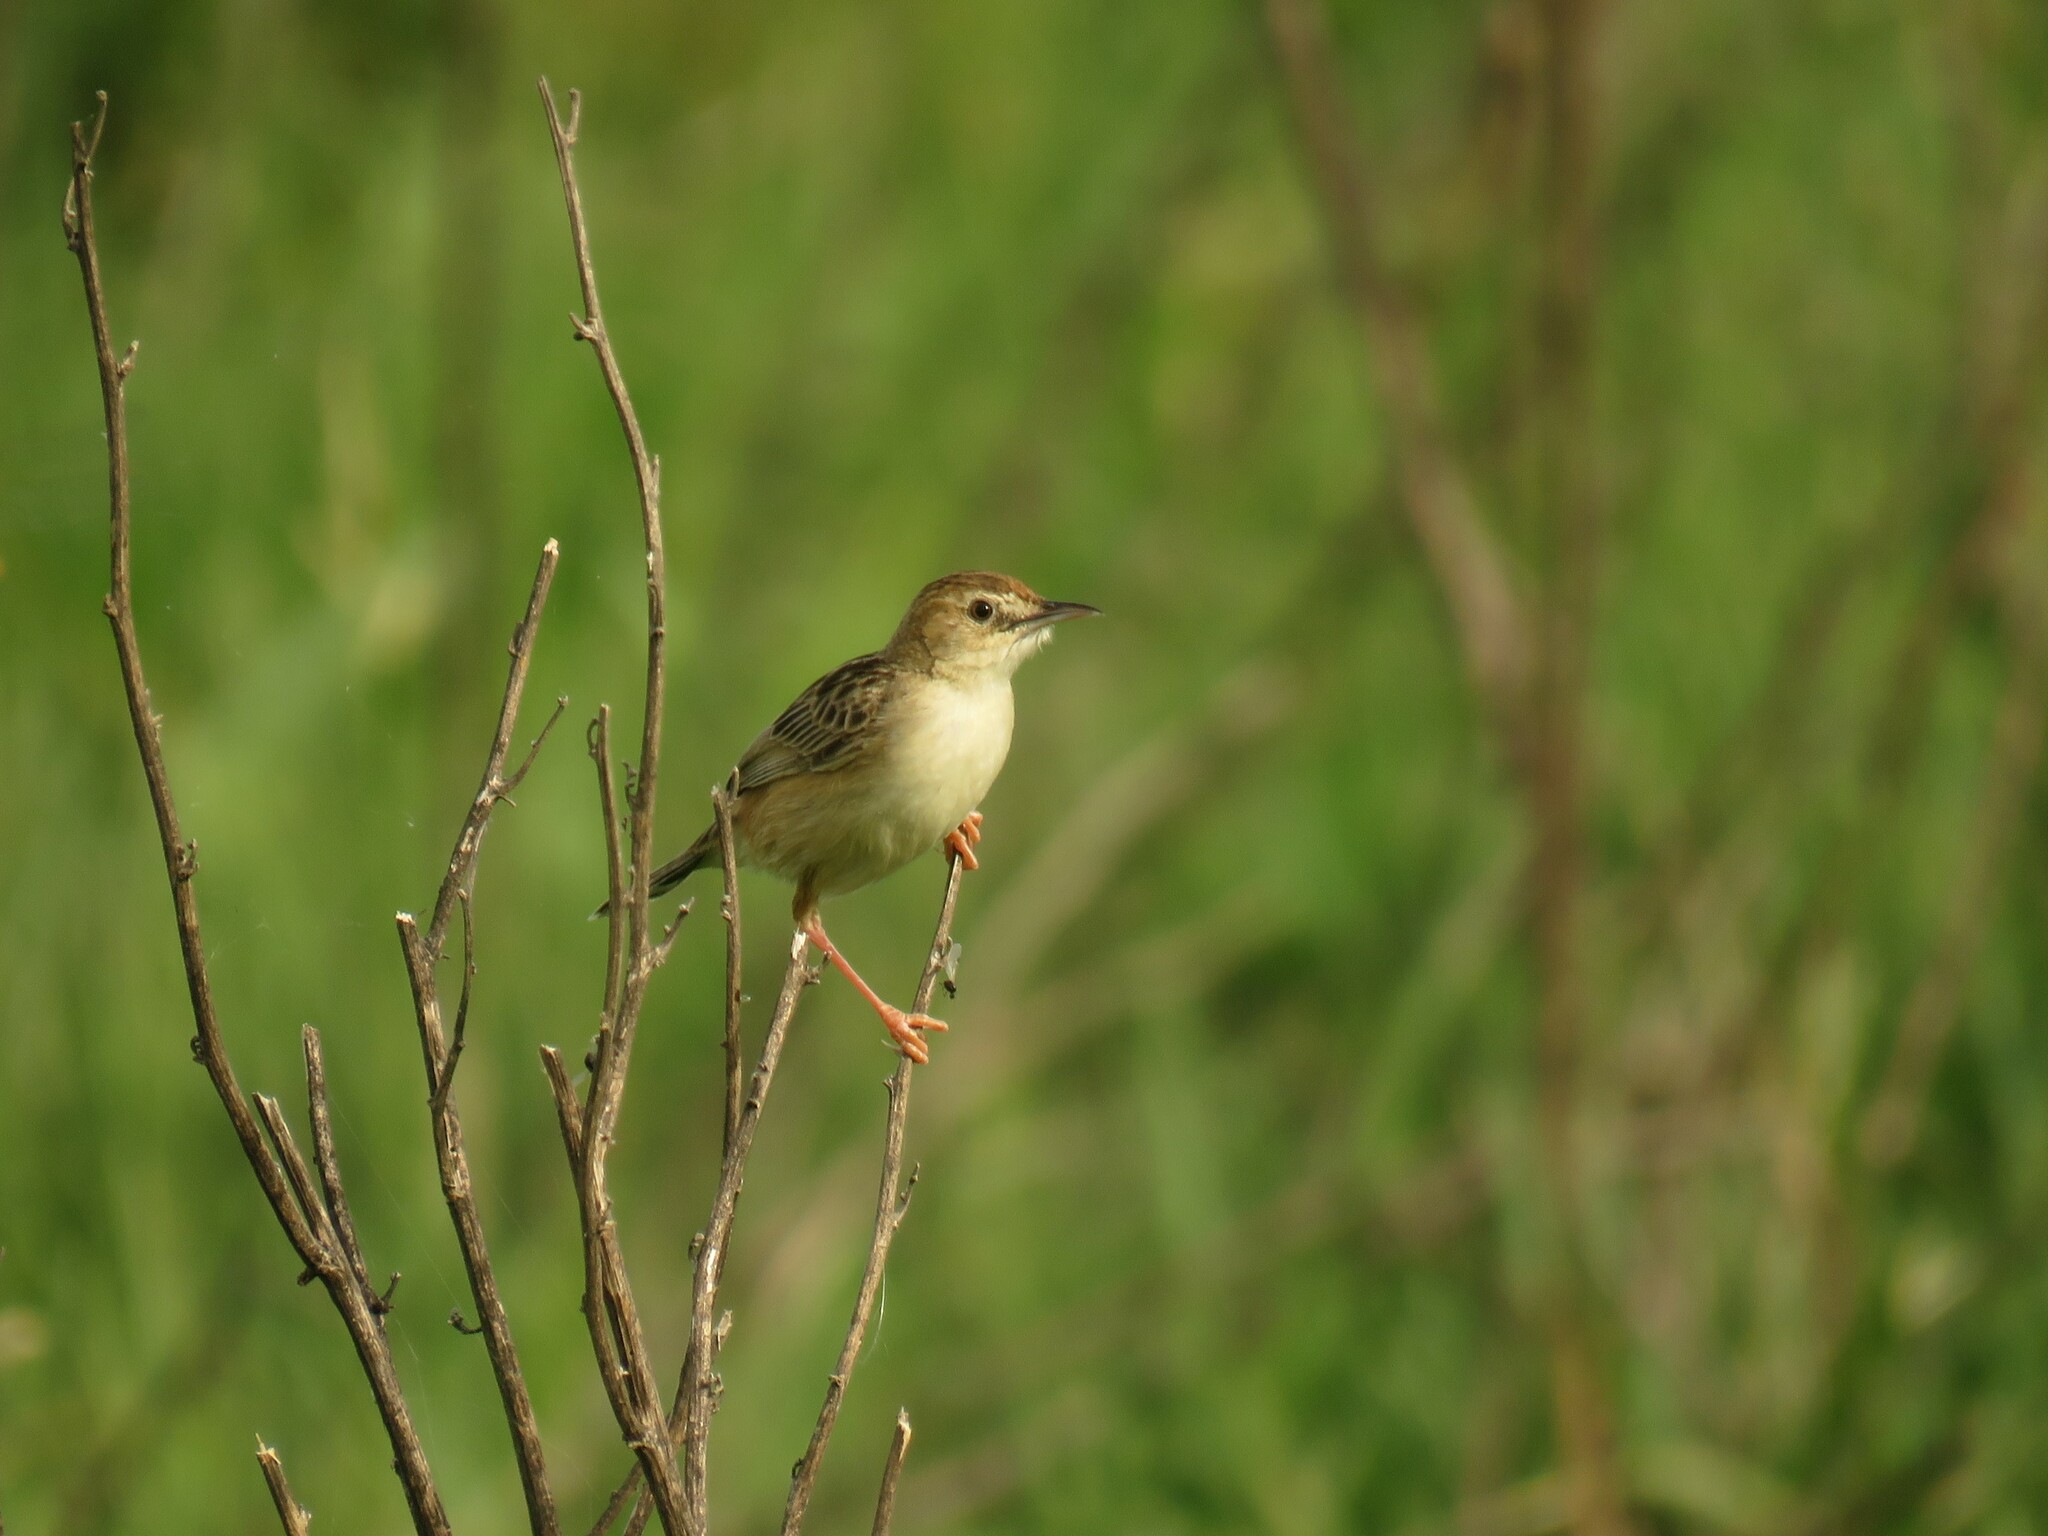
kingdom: Animalia
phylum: Chordata
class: Aves
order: Passeriformes
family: Cisticolidae
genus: Cisticola
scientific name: Cisticola juncidis
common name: Zitting cisticola
